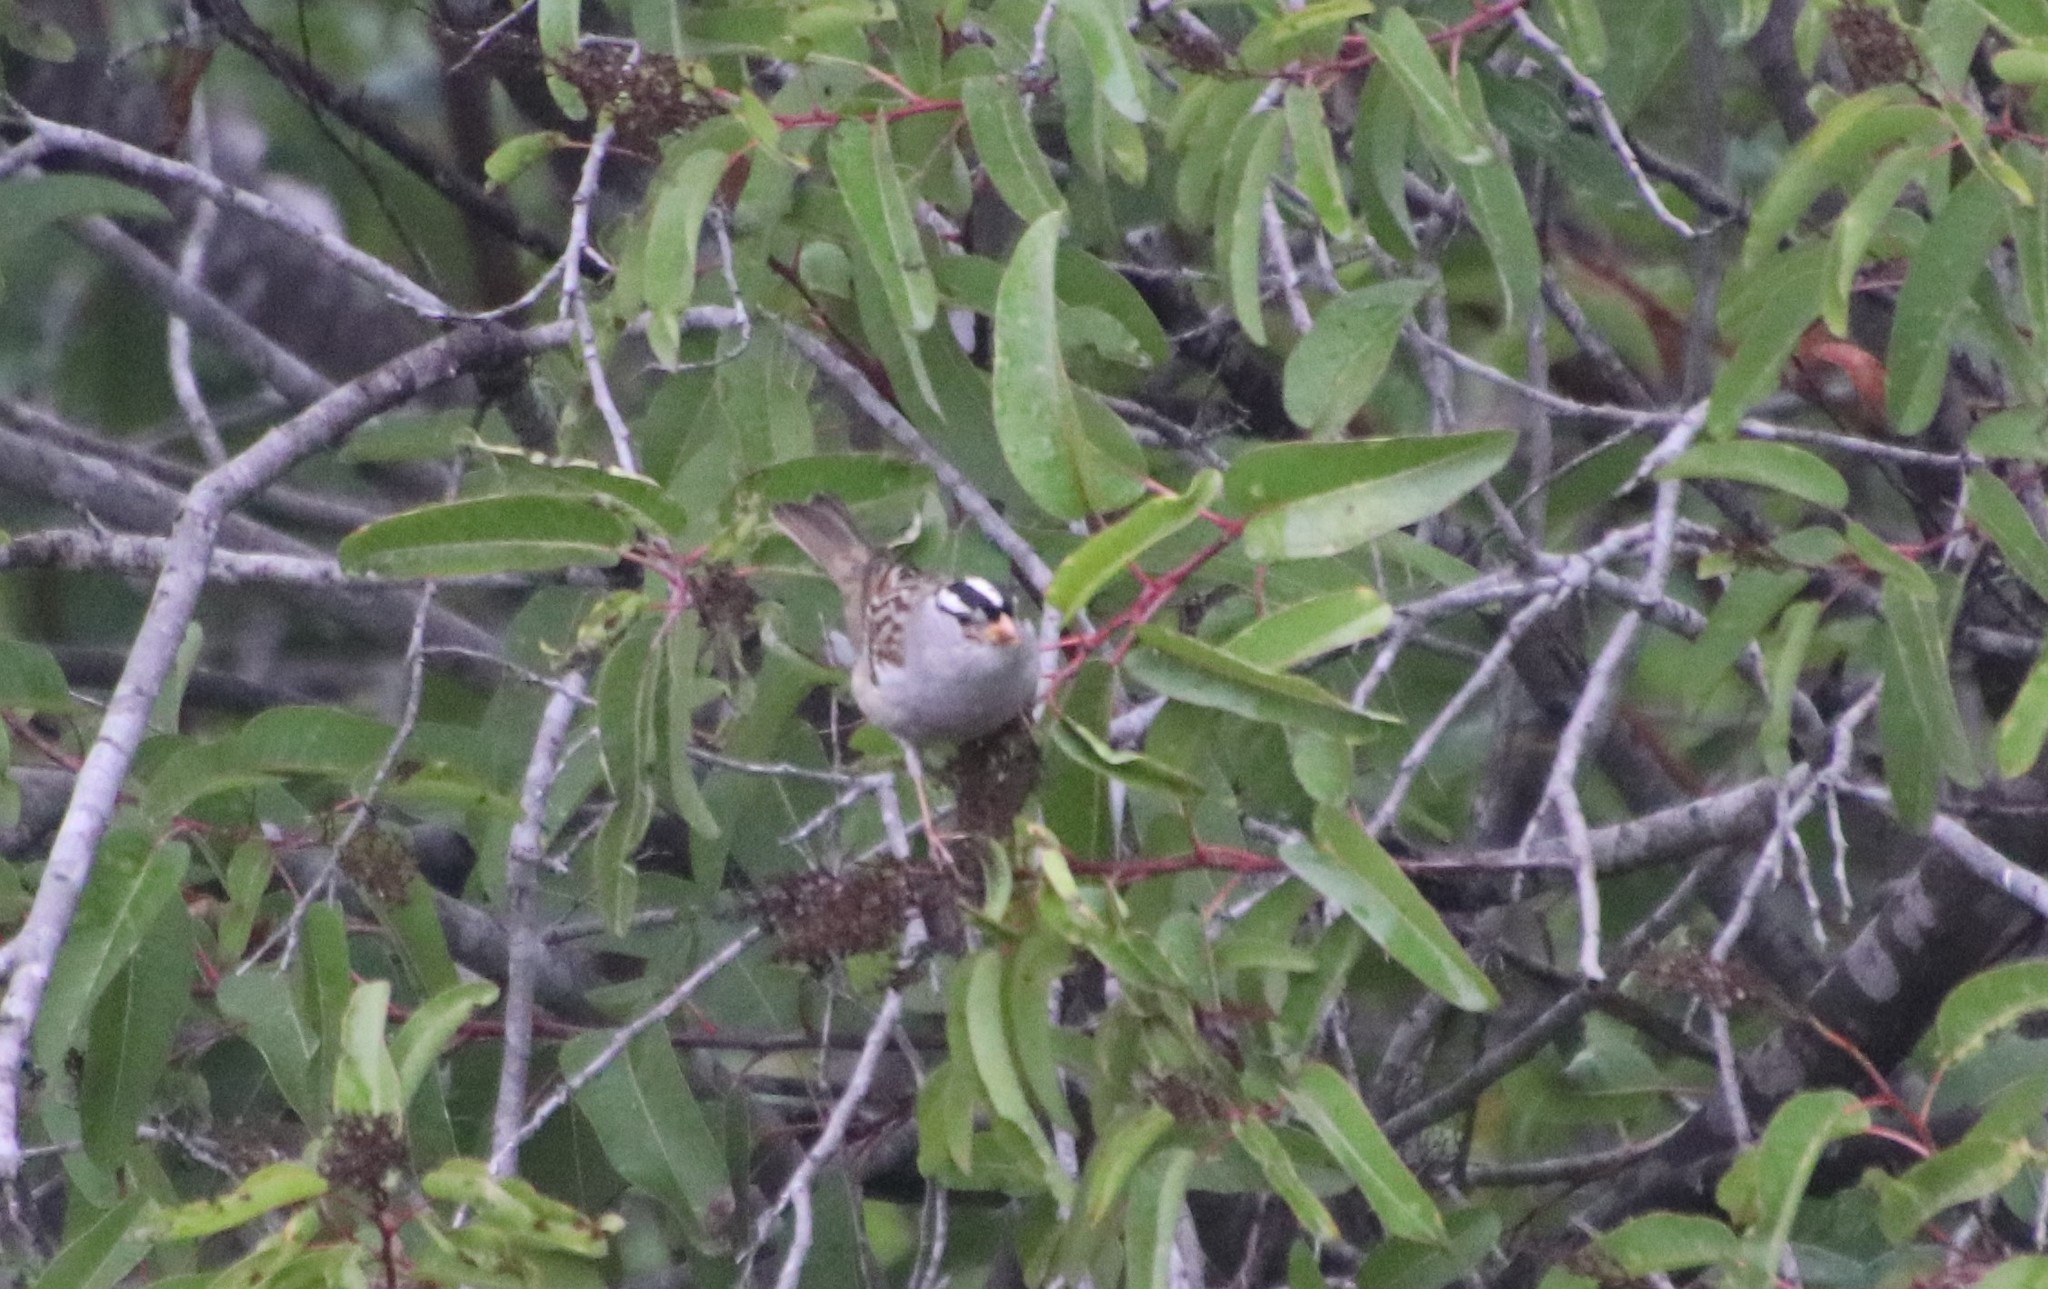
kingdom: Animalia
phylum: Chordata
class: Aves
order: Passeriformes
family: Passerellidae
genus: Zonotrichia
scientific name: Zonotrichia leucophrys
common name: White-crowned sparrow
